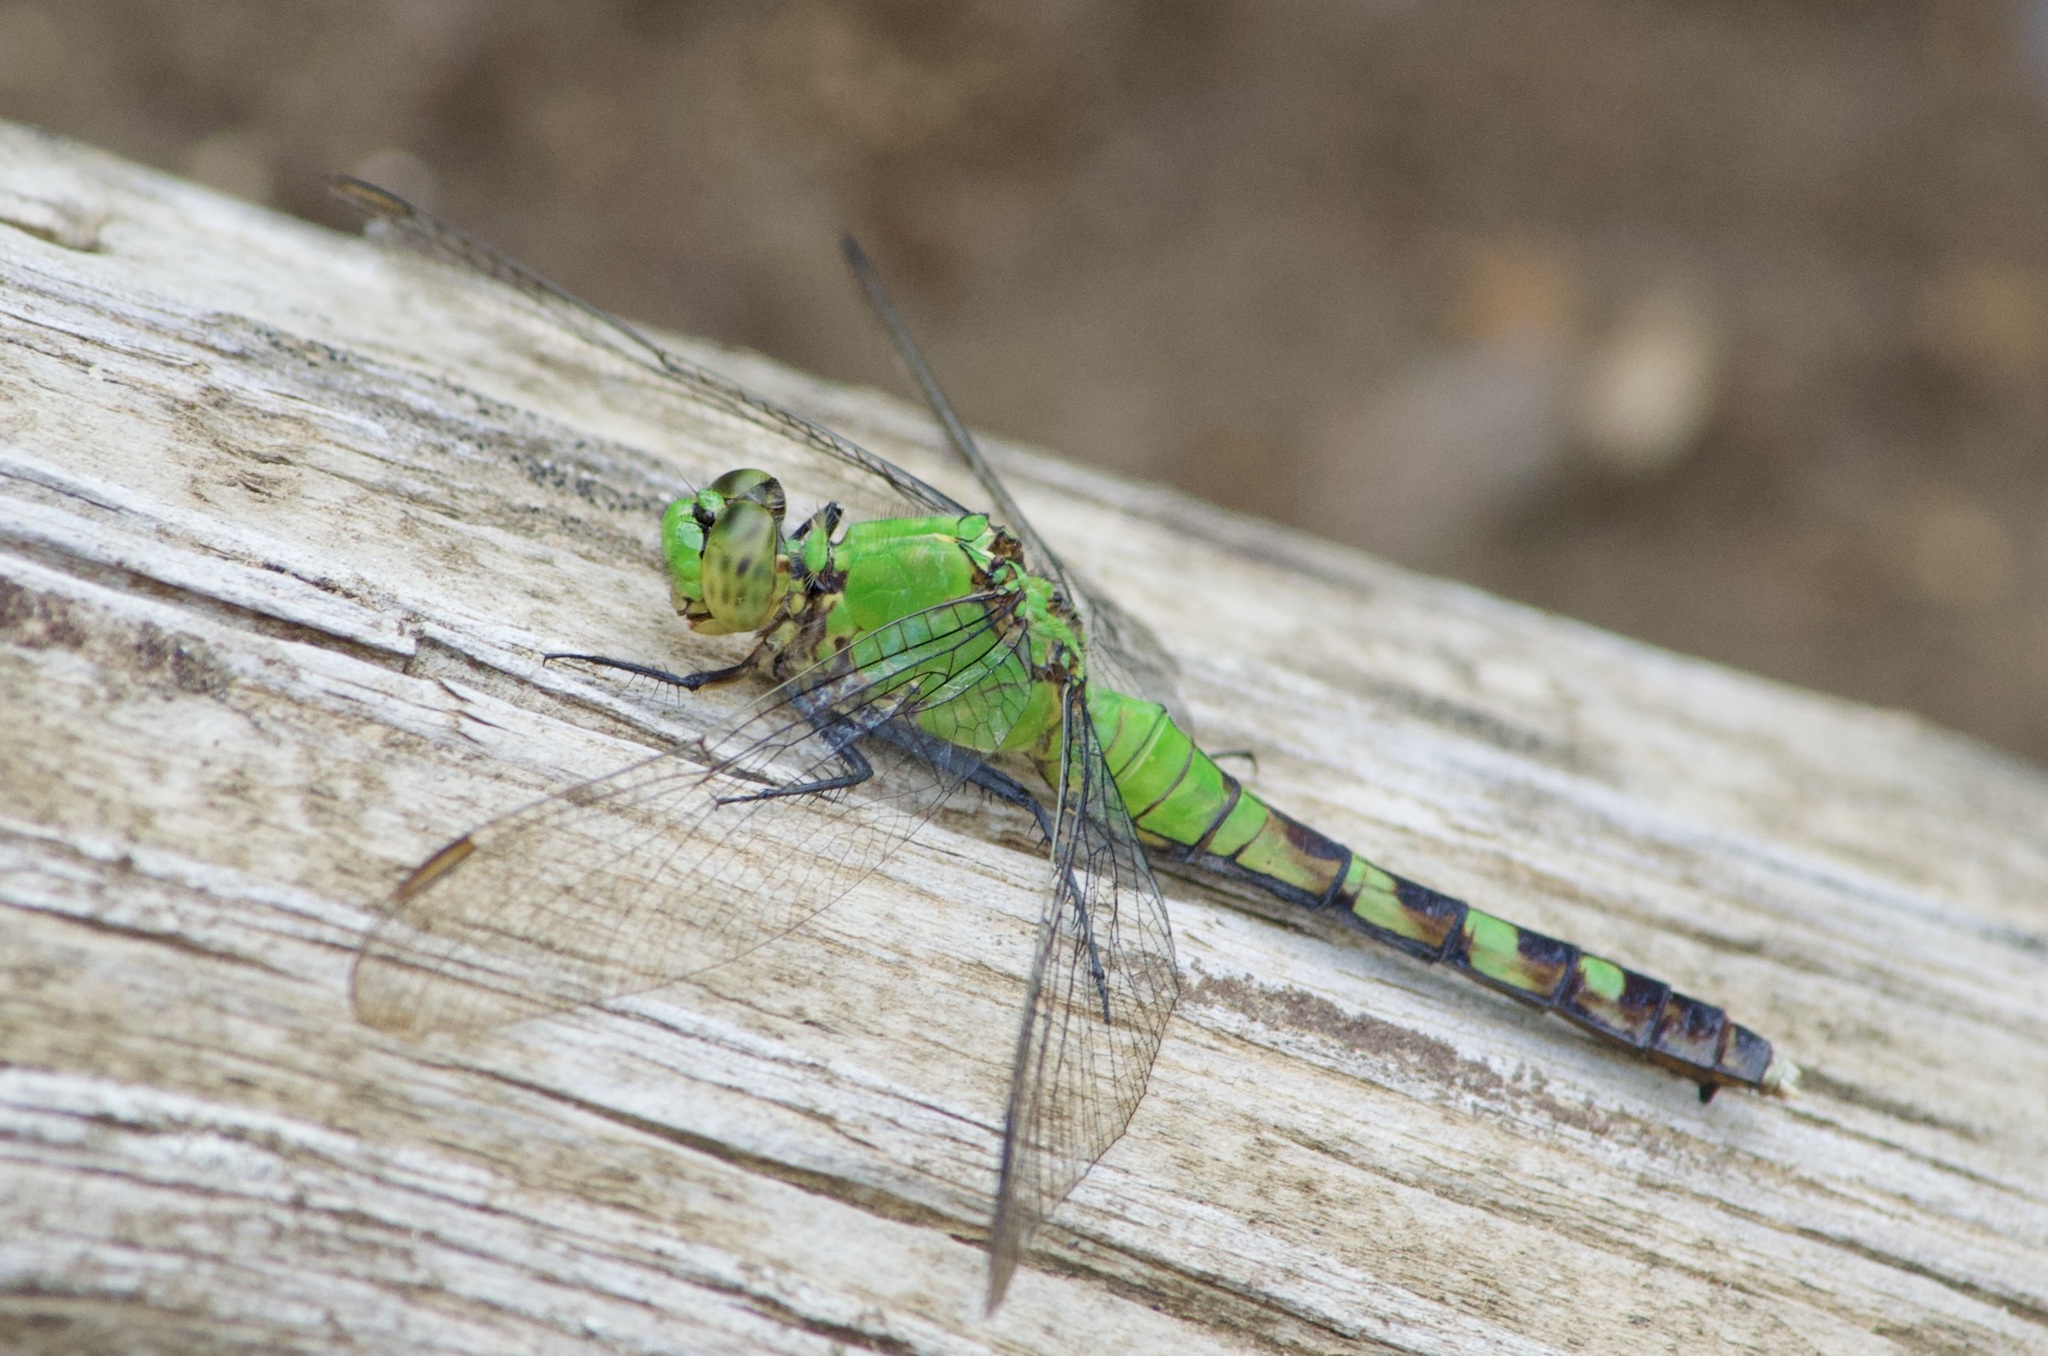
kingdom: Animalia
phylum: Arthropoda
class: Insecta
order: Odonata
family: Libellulidae
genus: Erythemis
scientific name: Erythemis simplicicollis
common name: Eastern pondhawk
